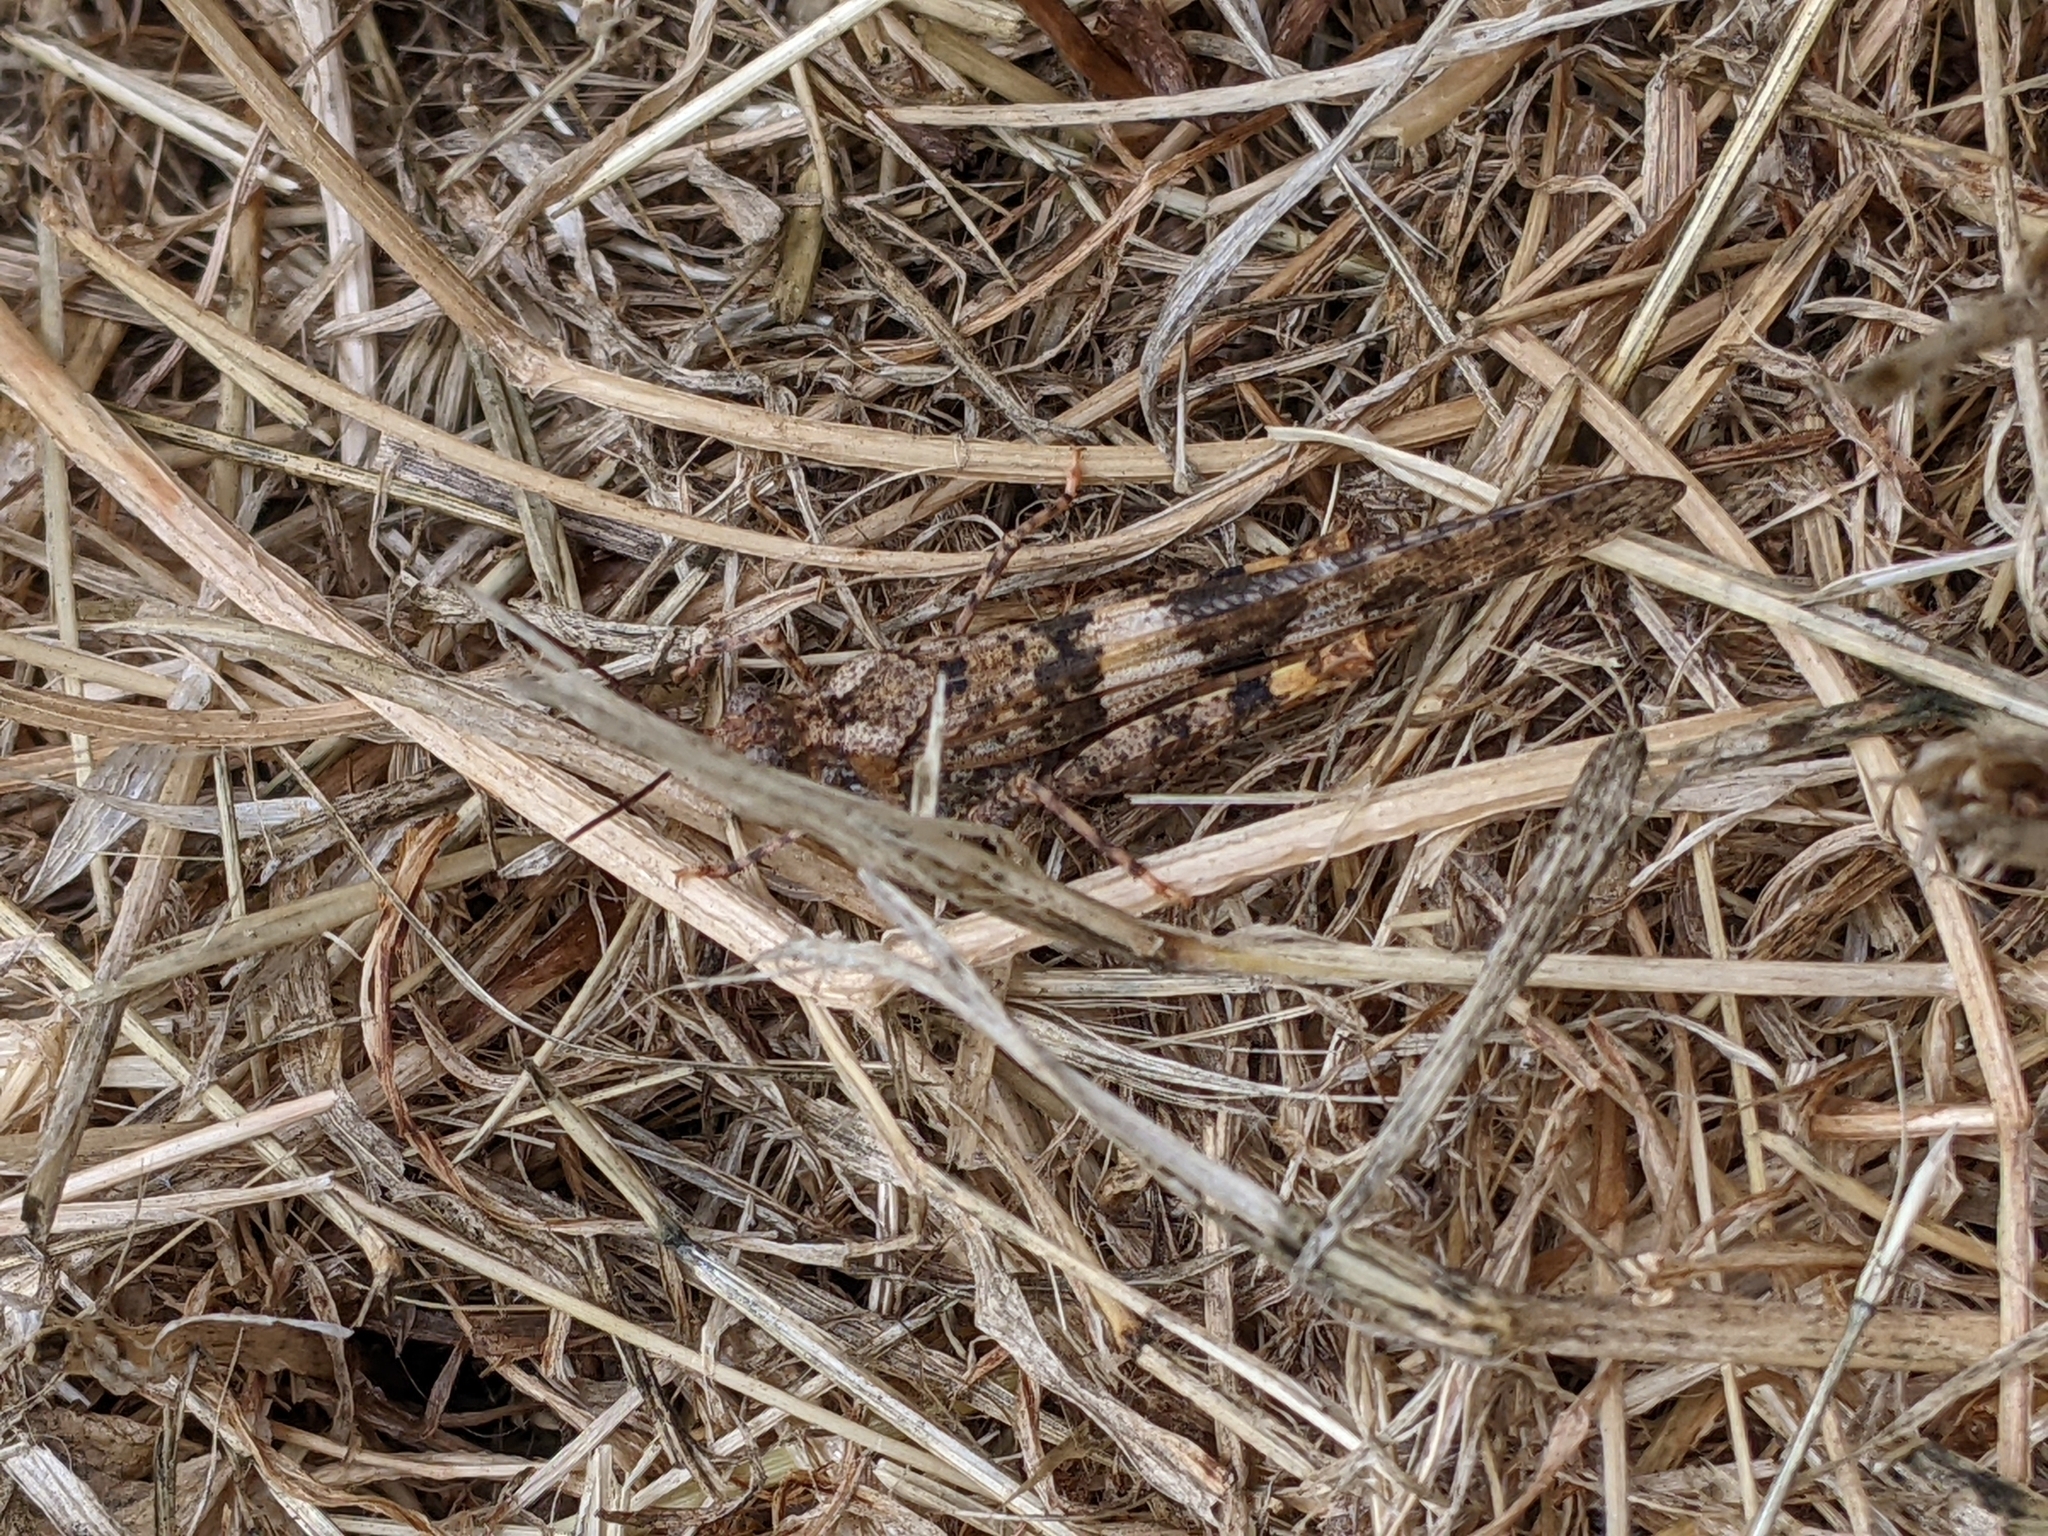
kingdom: Animalia
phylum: Arthropoda
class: Insecta
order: Orthoptera
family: Acrididae
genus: Trimerotropis
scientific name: Trimerotropis pallidipennis
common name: Pallid-winged grasshopper
